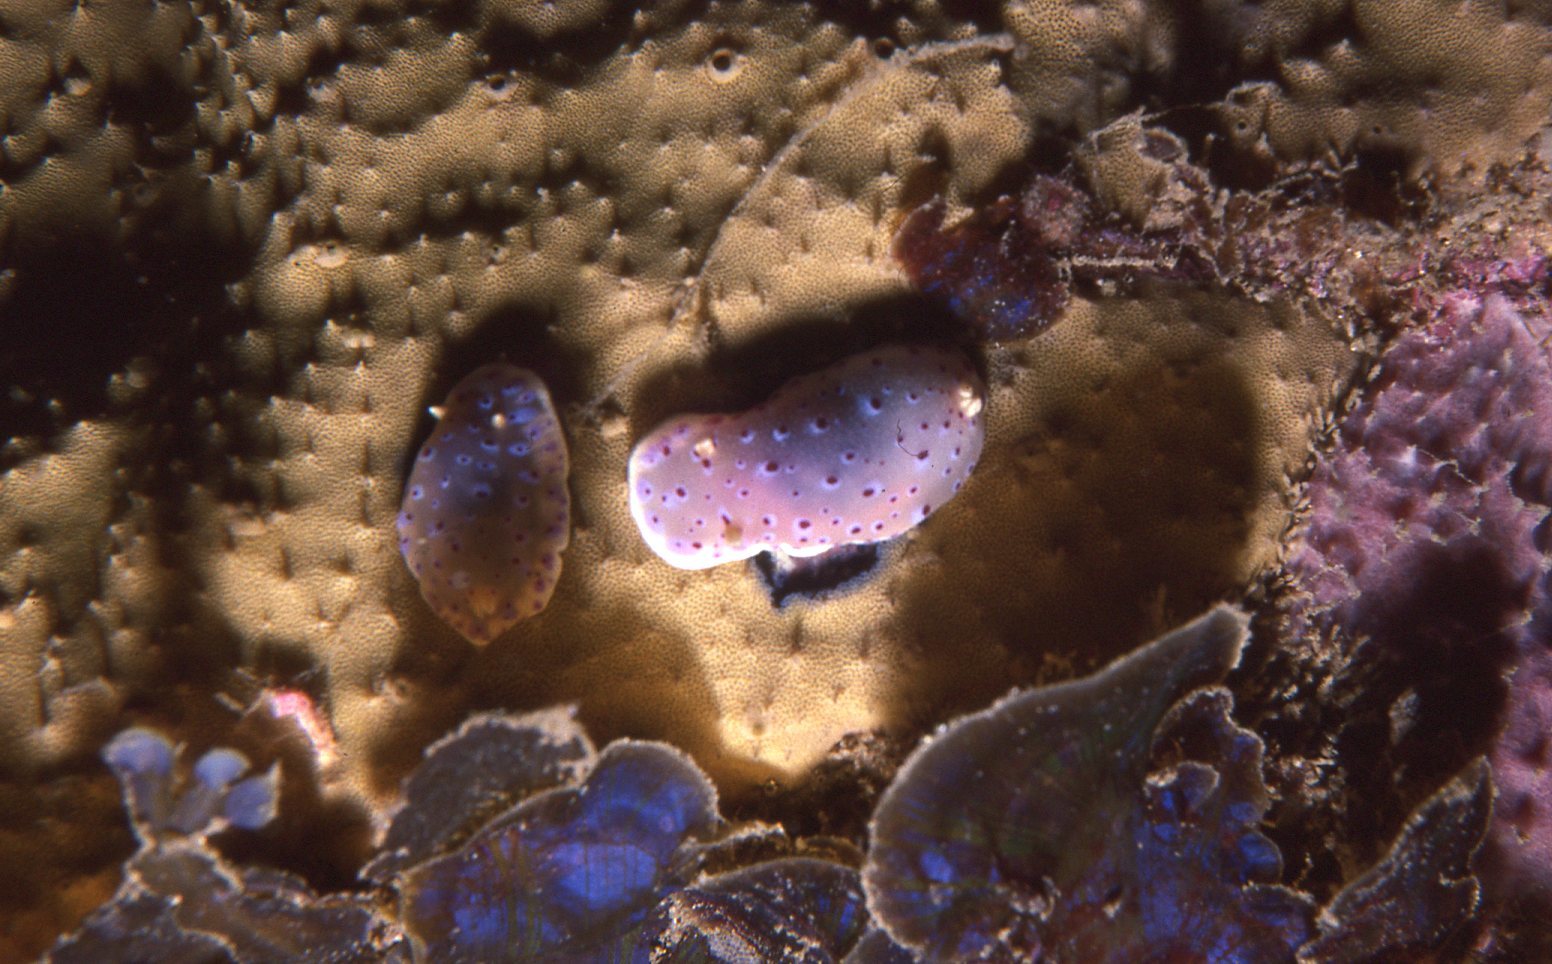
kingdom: Animalia
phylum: Mollusca
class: Gastropoda
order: Nudibranchia
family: Chromodorididae
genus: Goniobranchus
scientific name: Goniobranchus thompsoni
